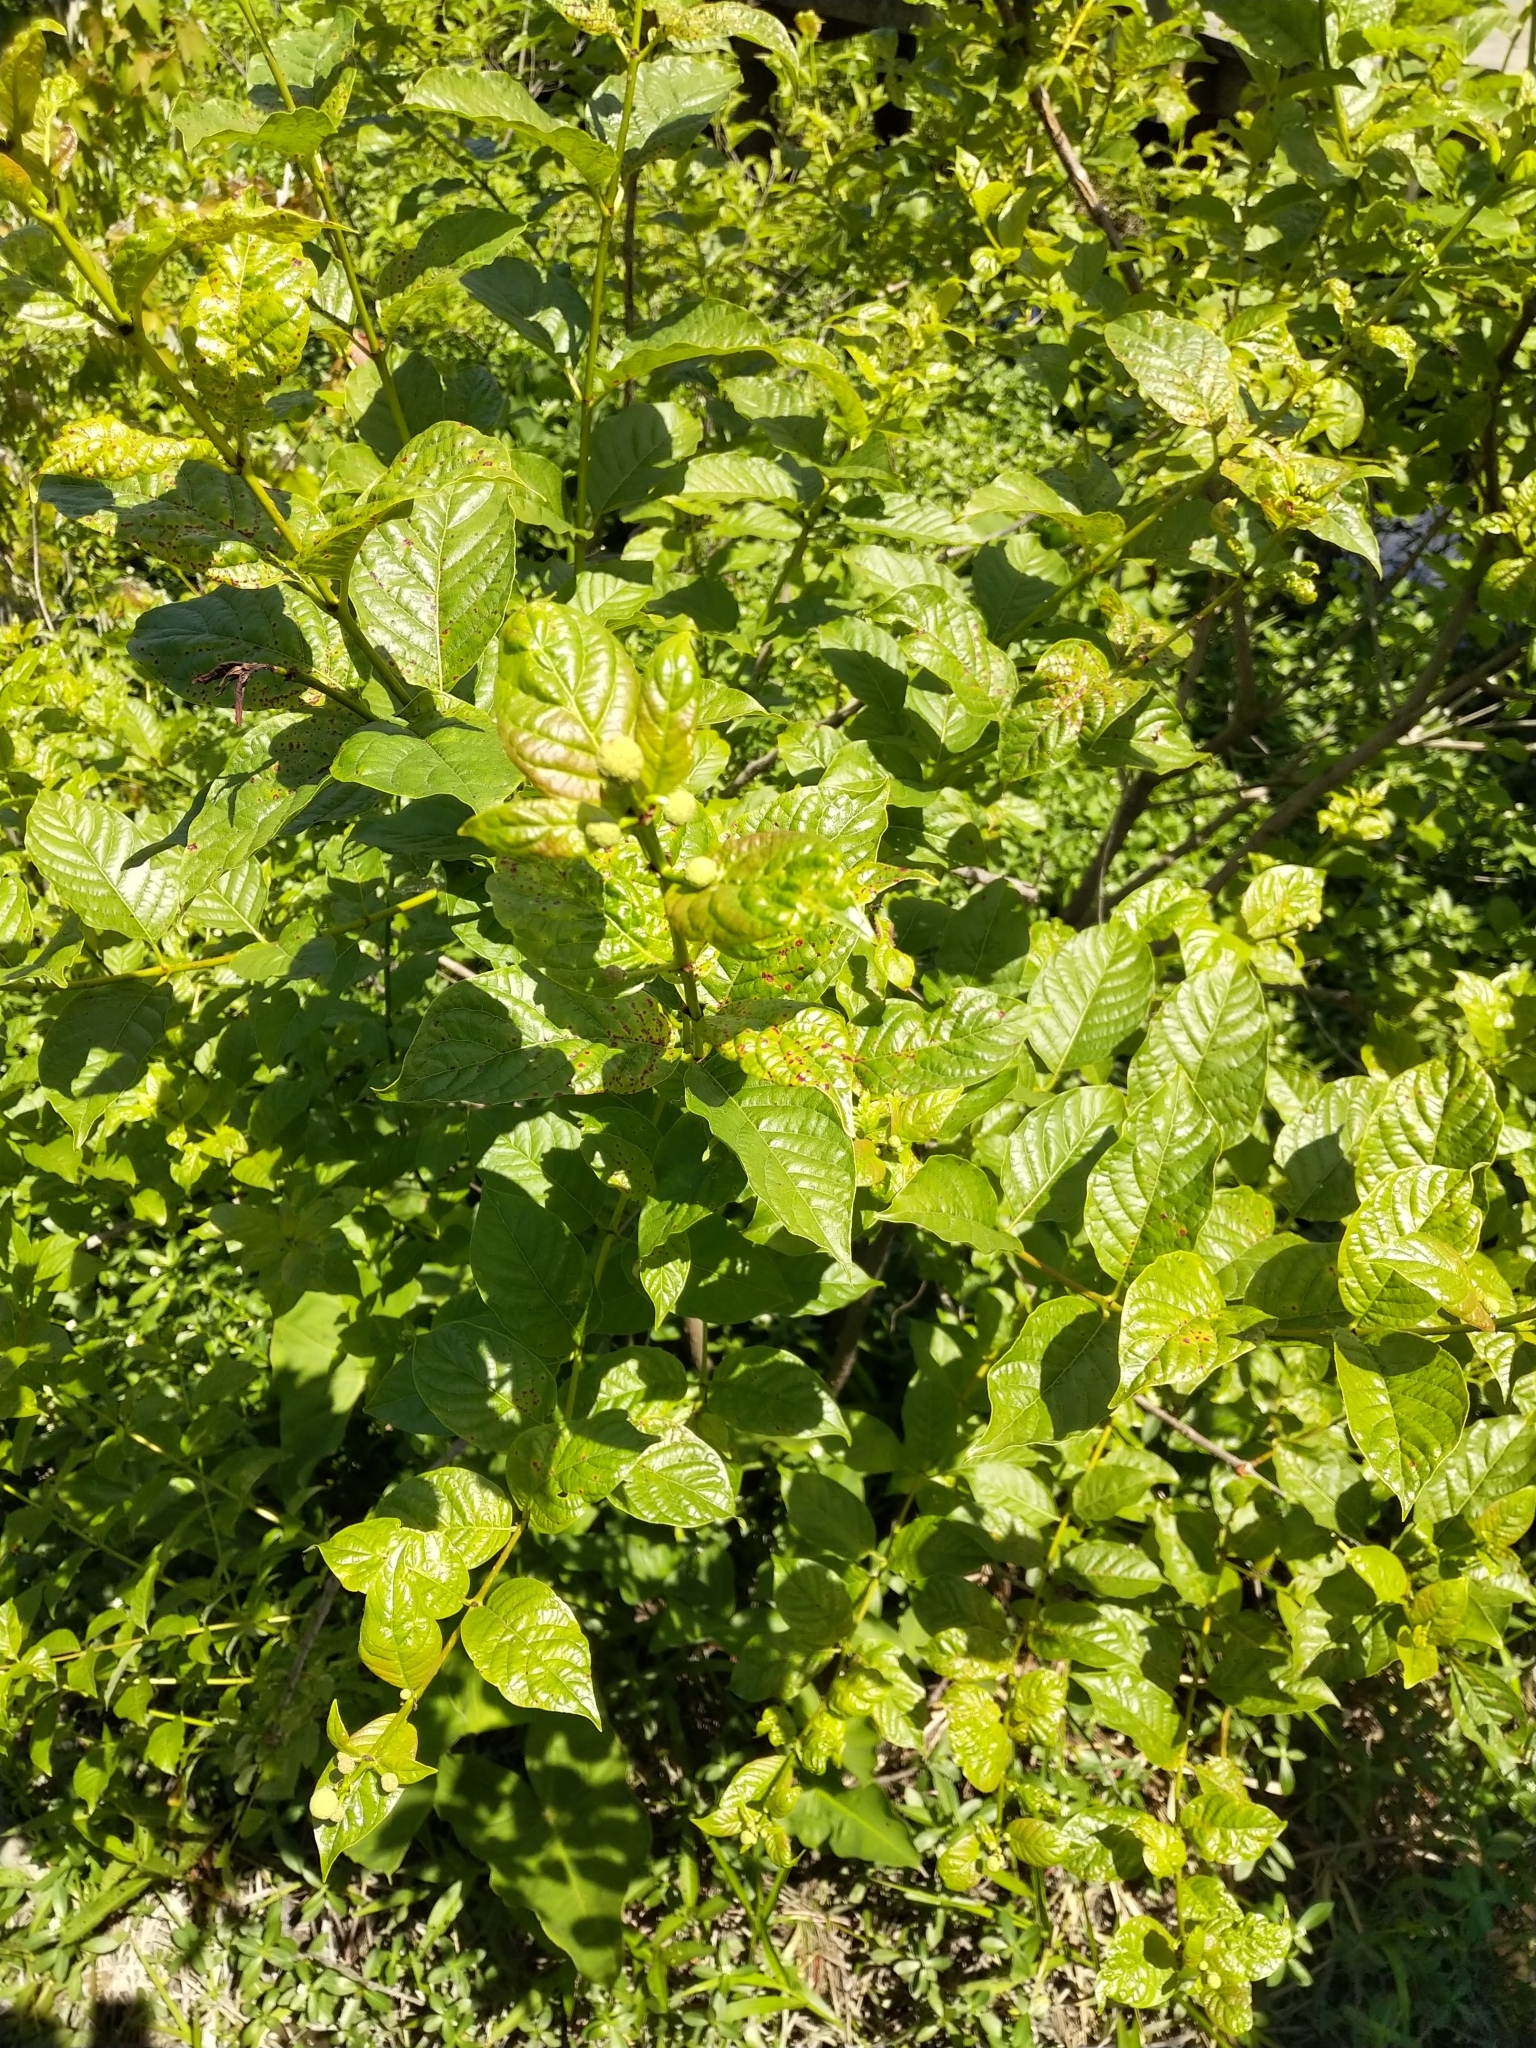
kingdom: Plantae
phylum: Tracheophyta
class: Magnoliopsida
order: Gentianales
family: Rubiaceae
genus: Cephalanthus
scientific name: Cephalanthus occidentalis
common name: Button-willow
